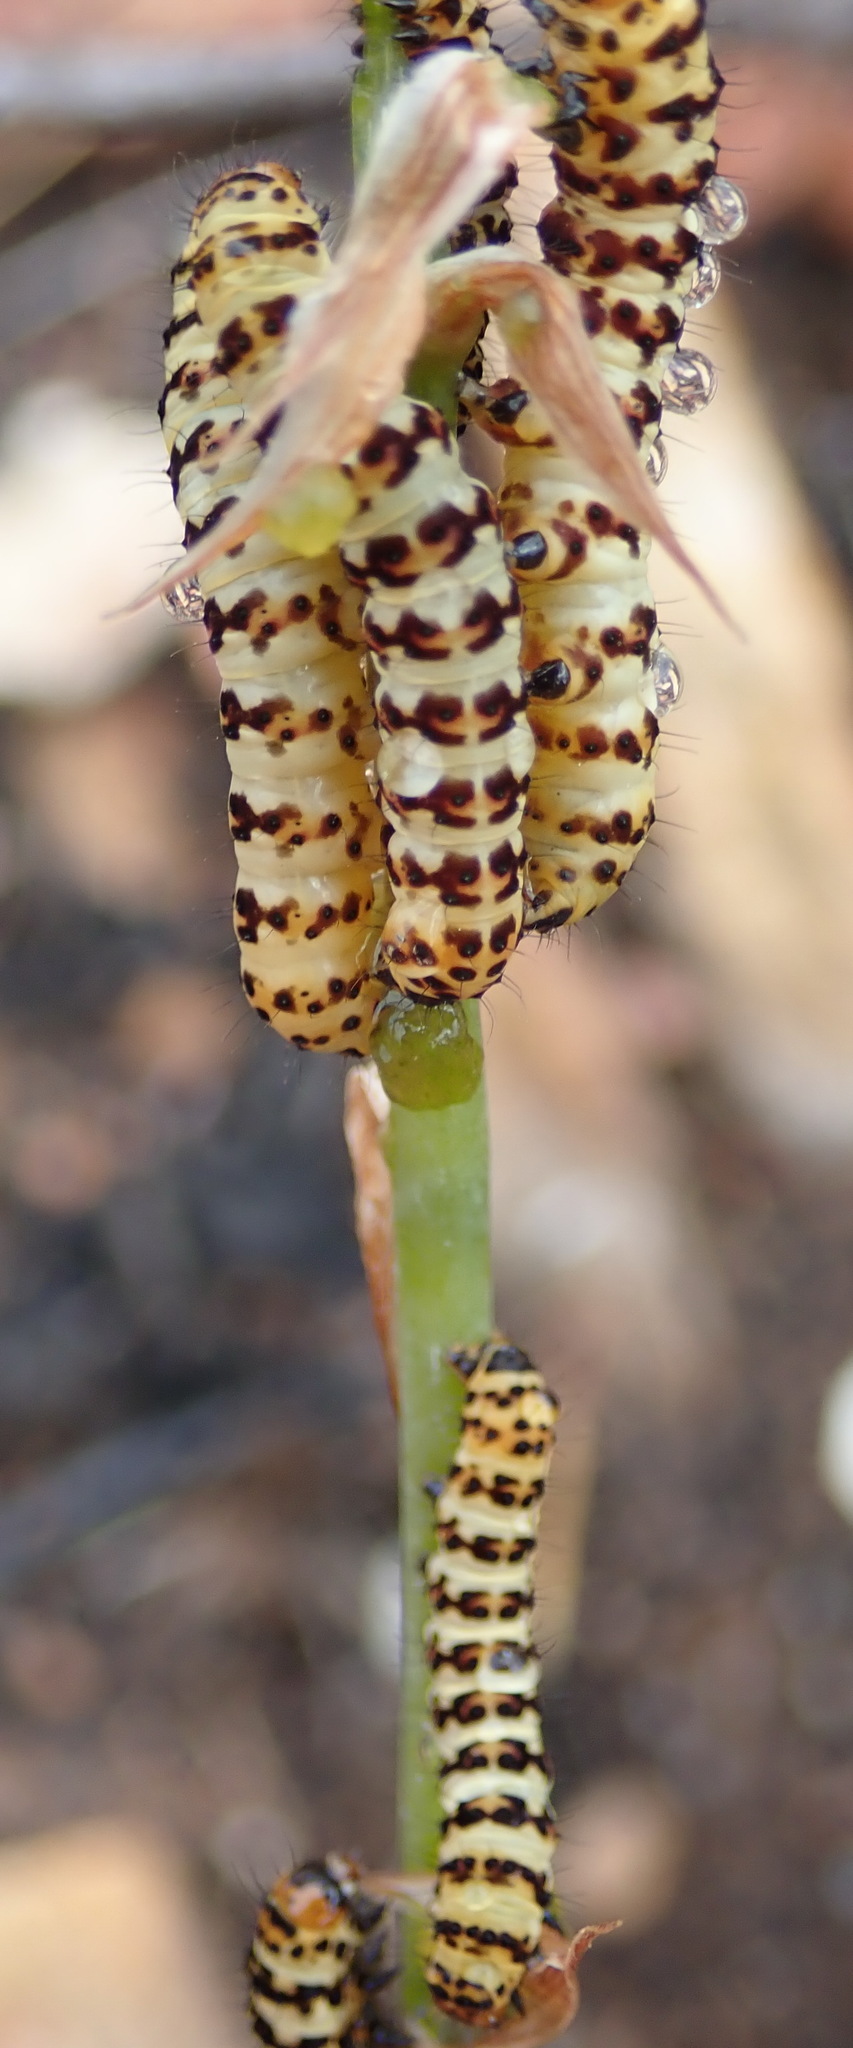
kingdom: Animalia
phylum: Arthropoda
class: Insecta
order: Lepidoptera
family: Noctuidae
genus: Diaphone
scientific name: Diaphone eumela
